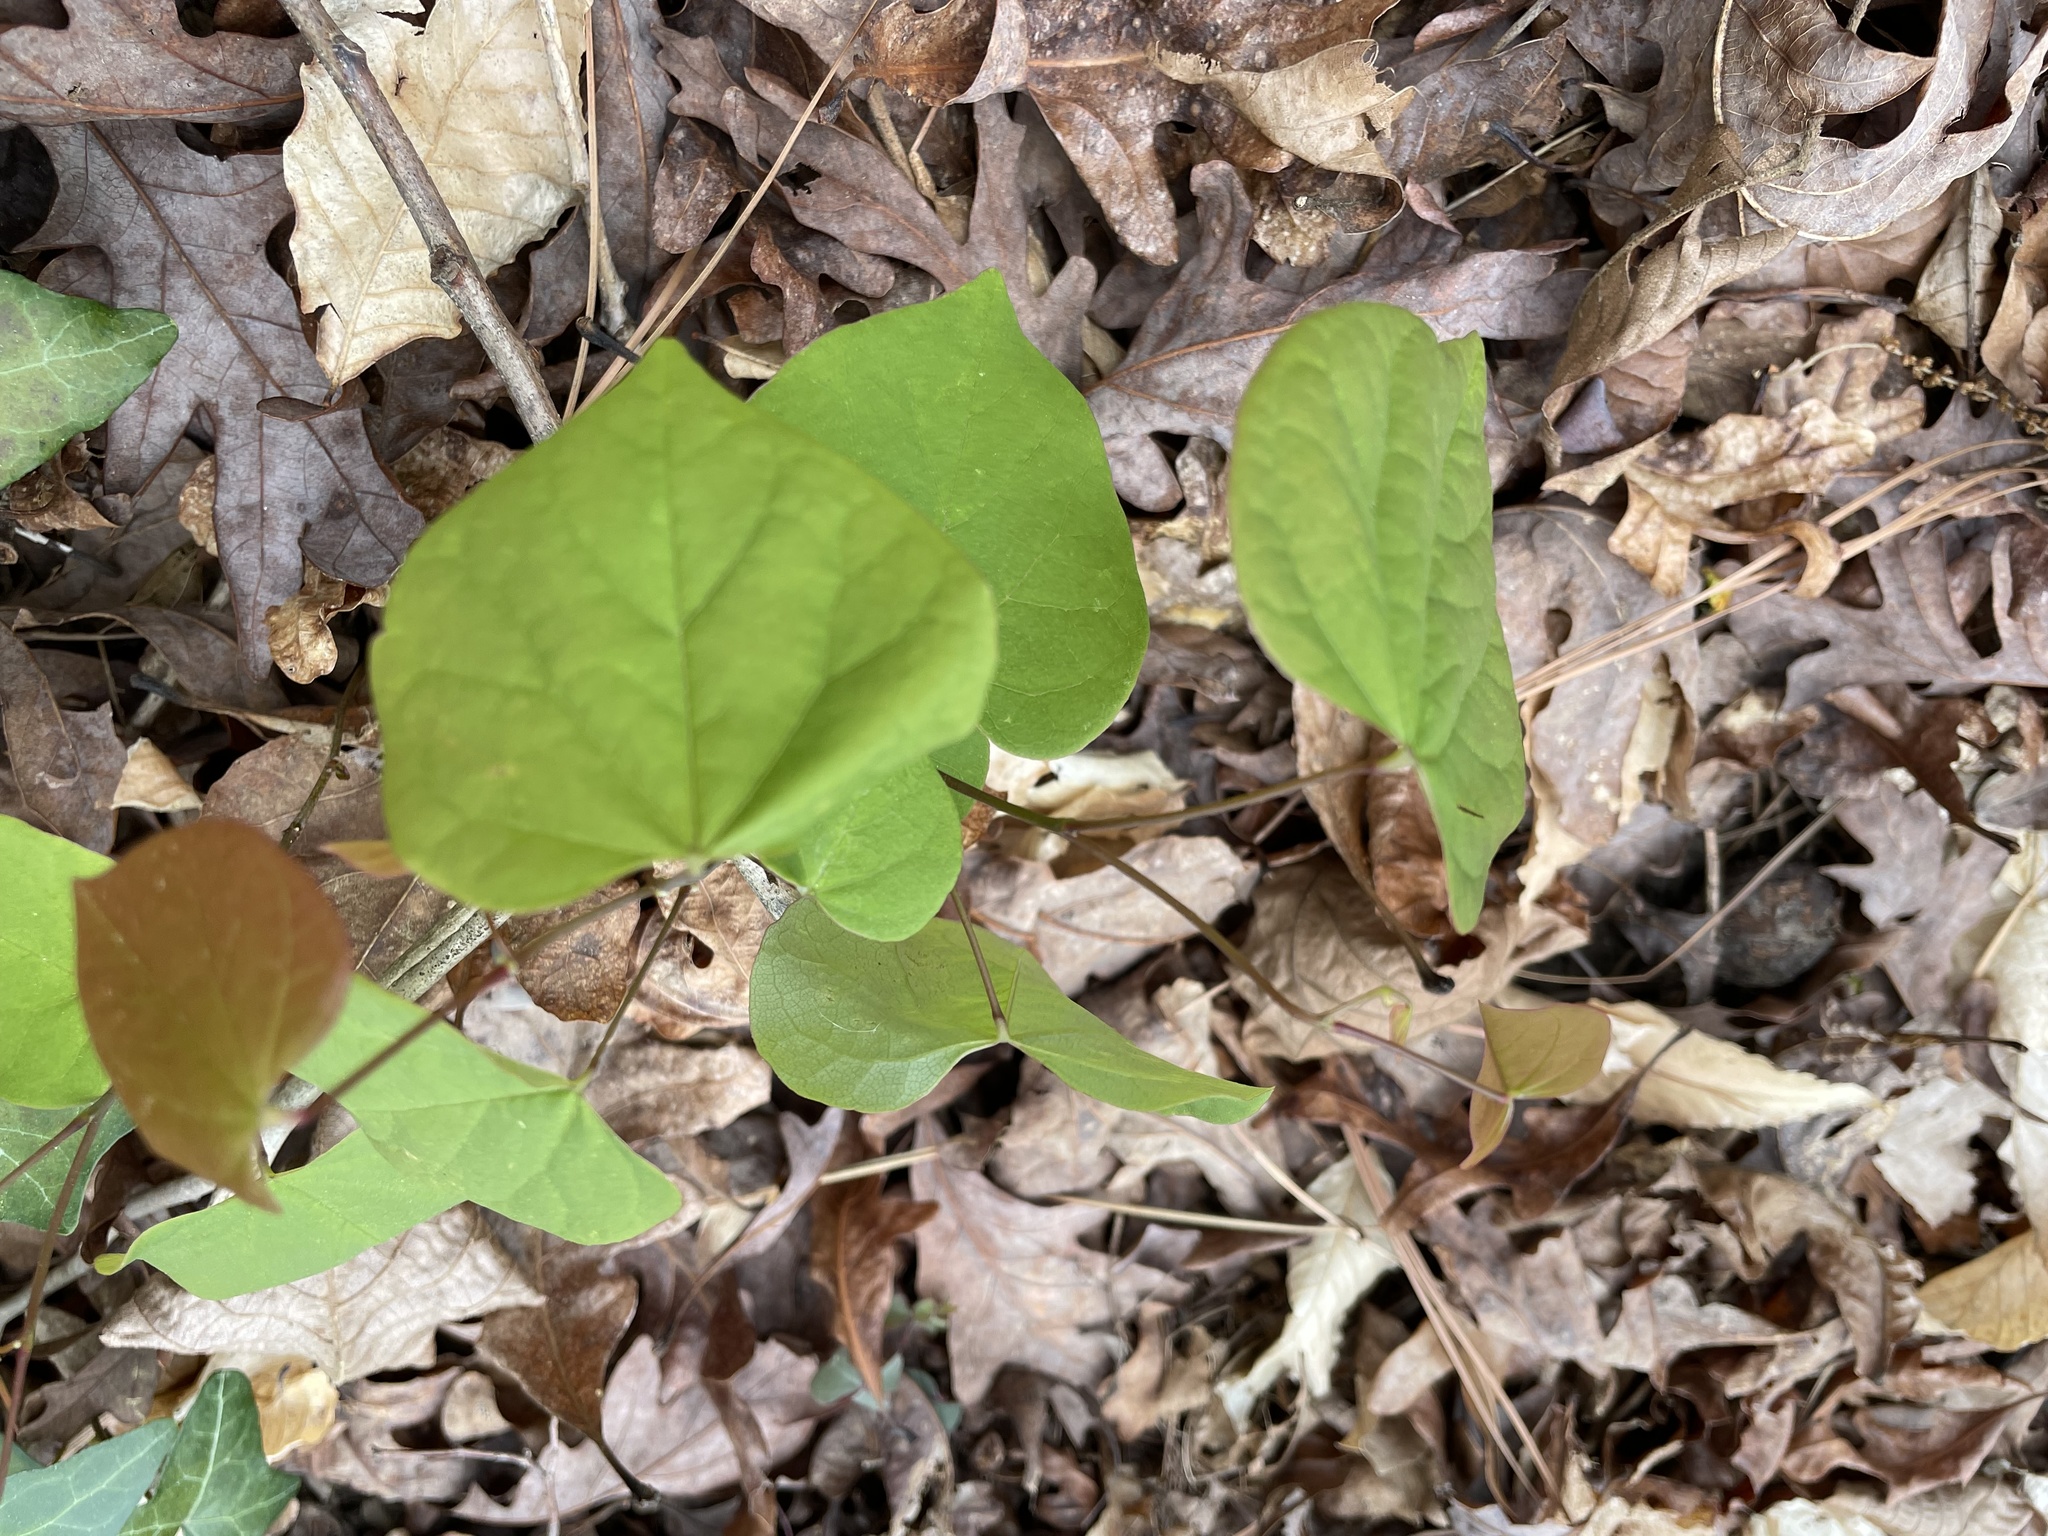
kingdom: Plantae
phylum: Tracheophyta
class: Magnoliopsida
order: Fabales
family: Fabaceae
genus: Cercis
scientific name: Cercis canadensis
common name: Eastern redbud
